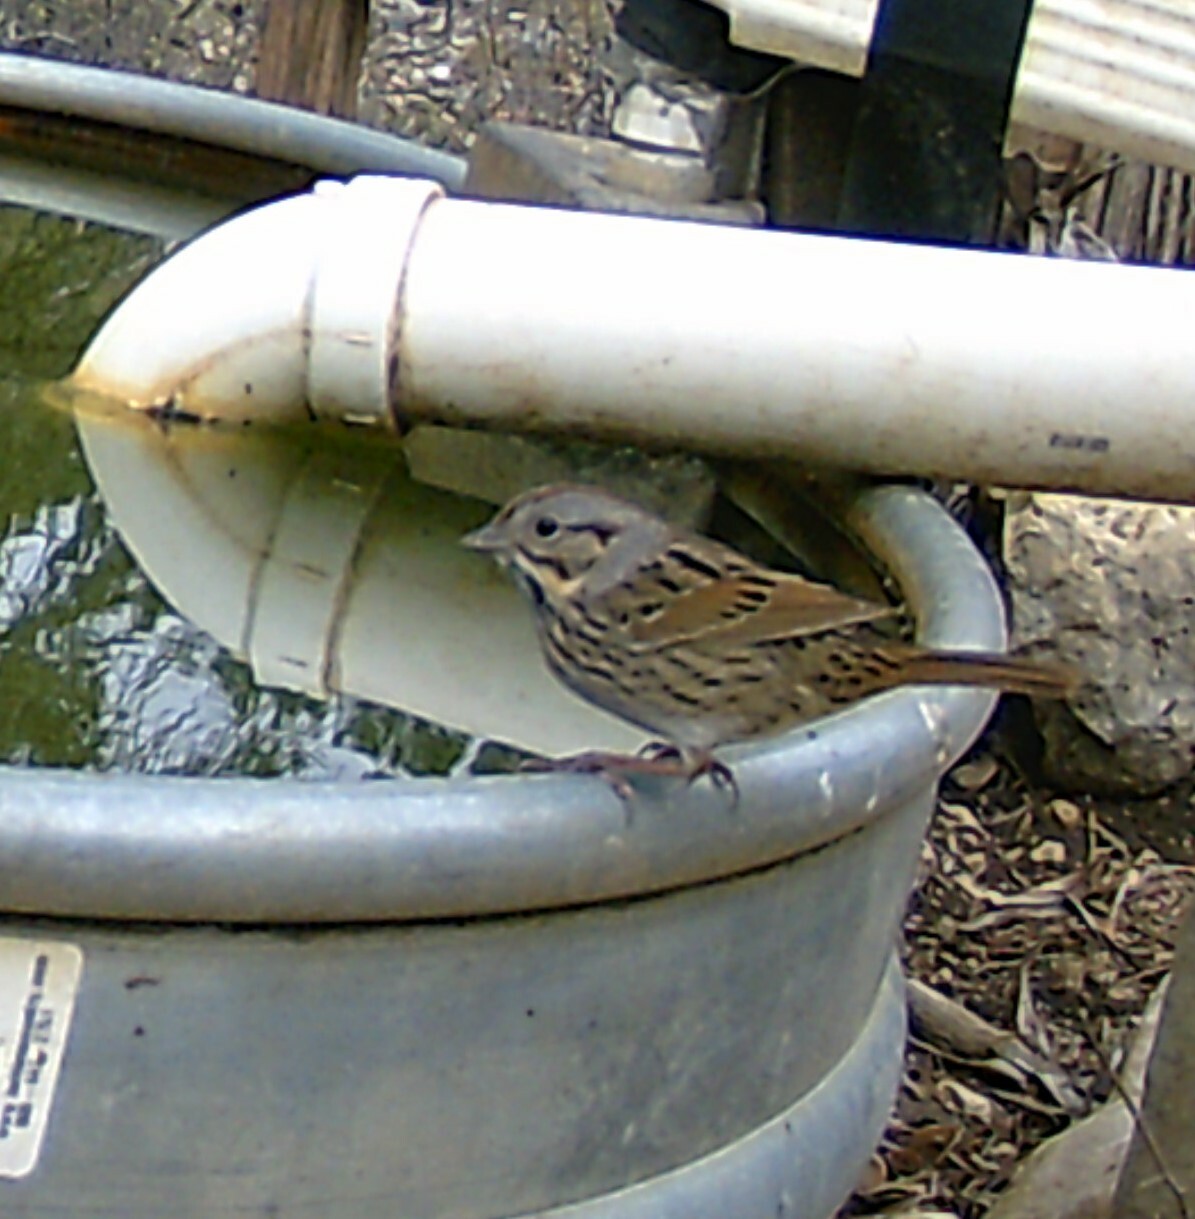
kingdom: Animalia
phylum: Chordata
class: Aves
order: Passeriformes
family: Passerellidae
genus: Melospiza
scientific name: Melospiza lincolnii
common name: Lincoln's sparrow
